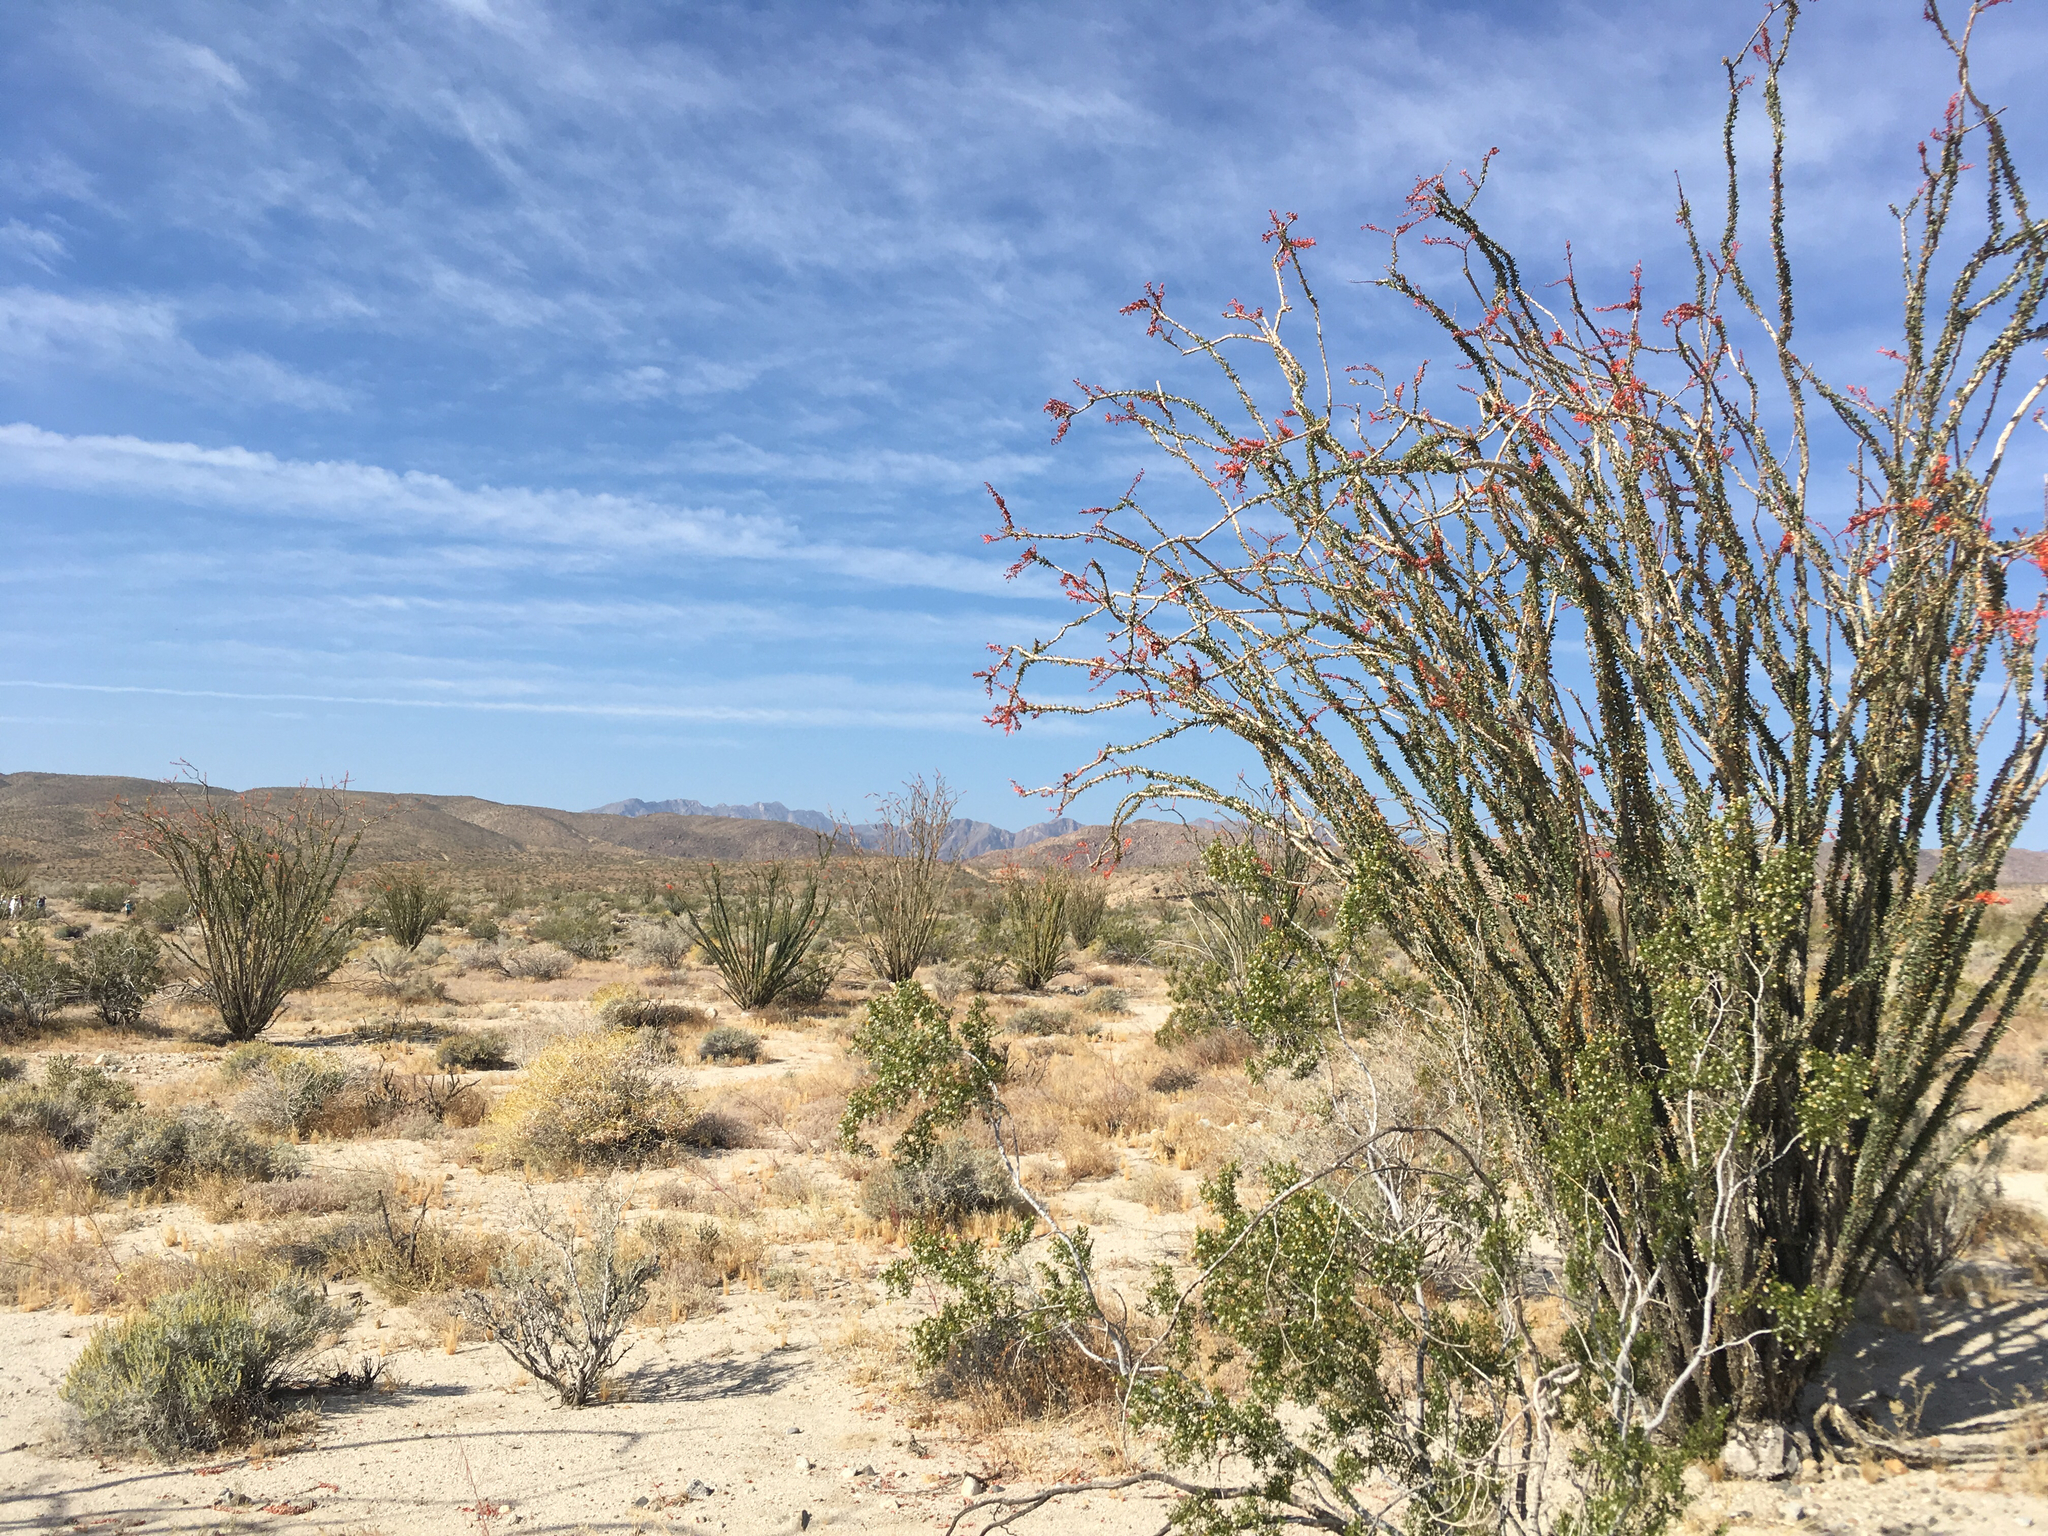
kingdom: Plantae
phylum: Tracheophyta
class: Magnoliopsida
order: Ericales
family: Fouquieriaceae
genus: Fouquieria
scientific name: Fouquieria splendens
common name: Vine-cactus
